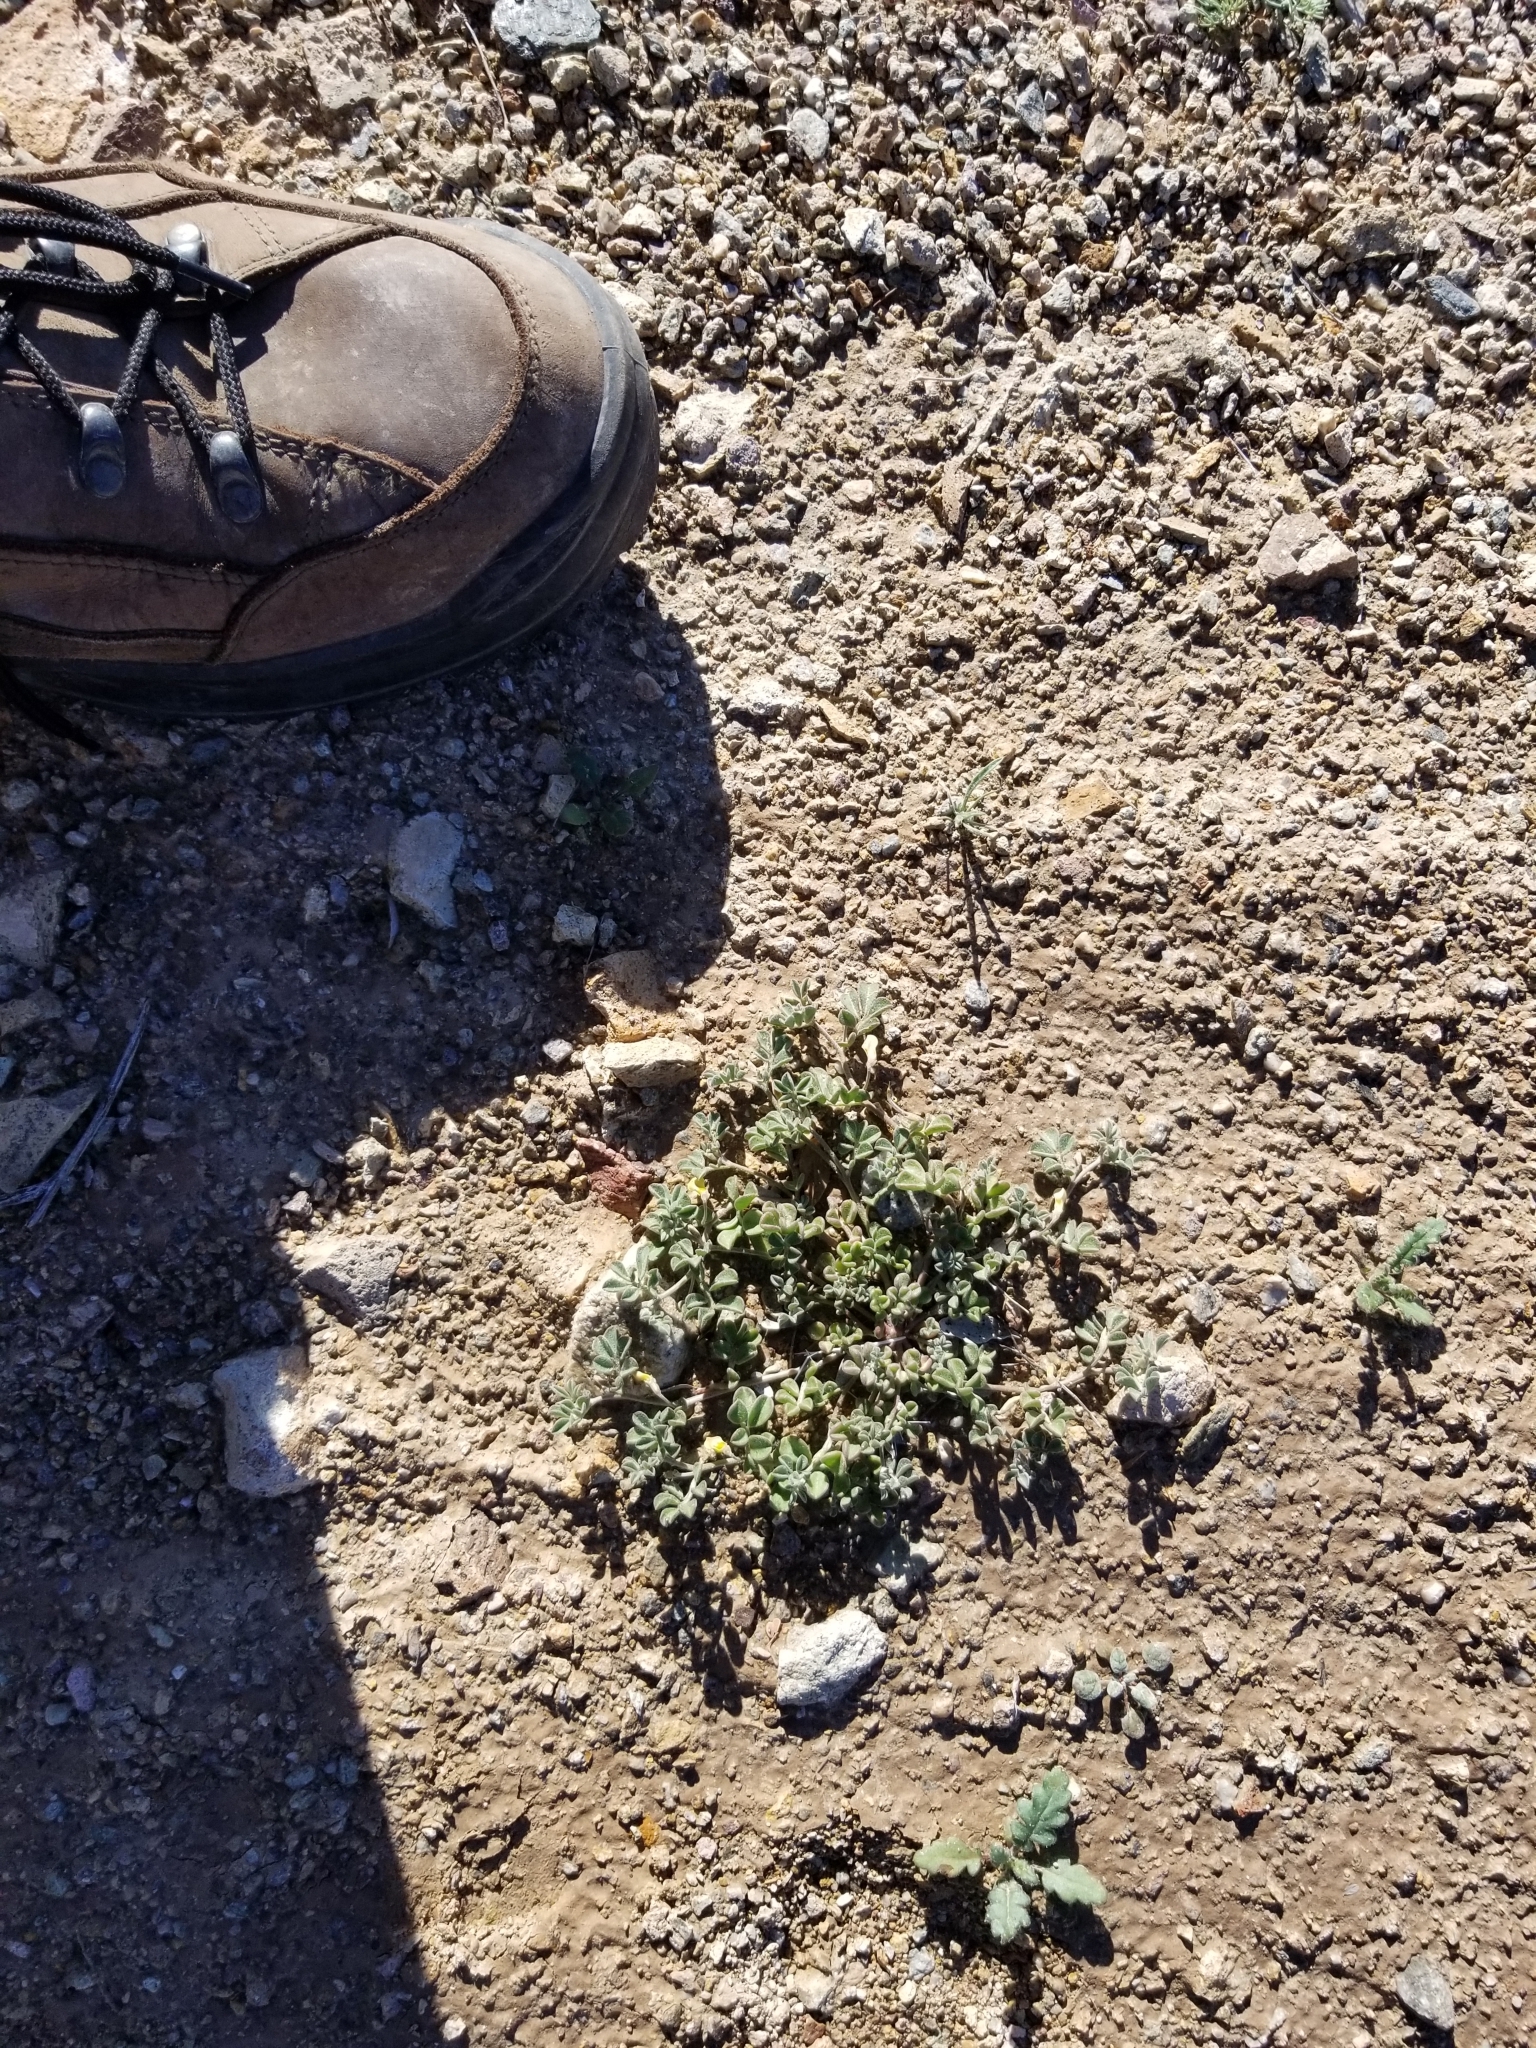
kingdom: Plantae
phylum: Tracheophyta
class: Magnoliopsida
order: Fabales
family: Fabaceae
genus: Acmispon
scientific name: Acmispon strigosus
